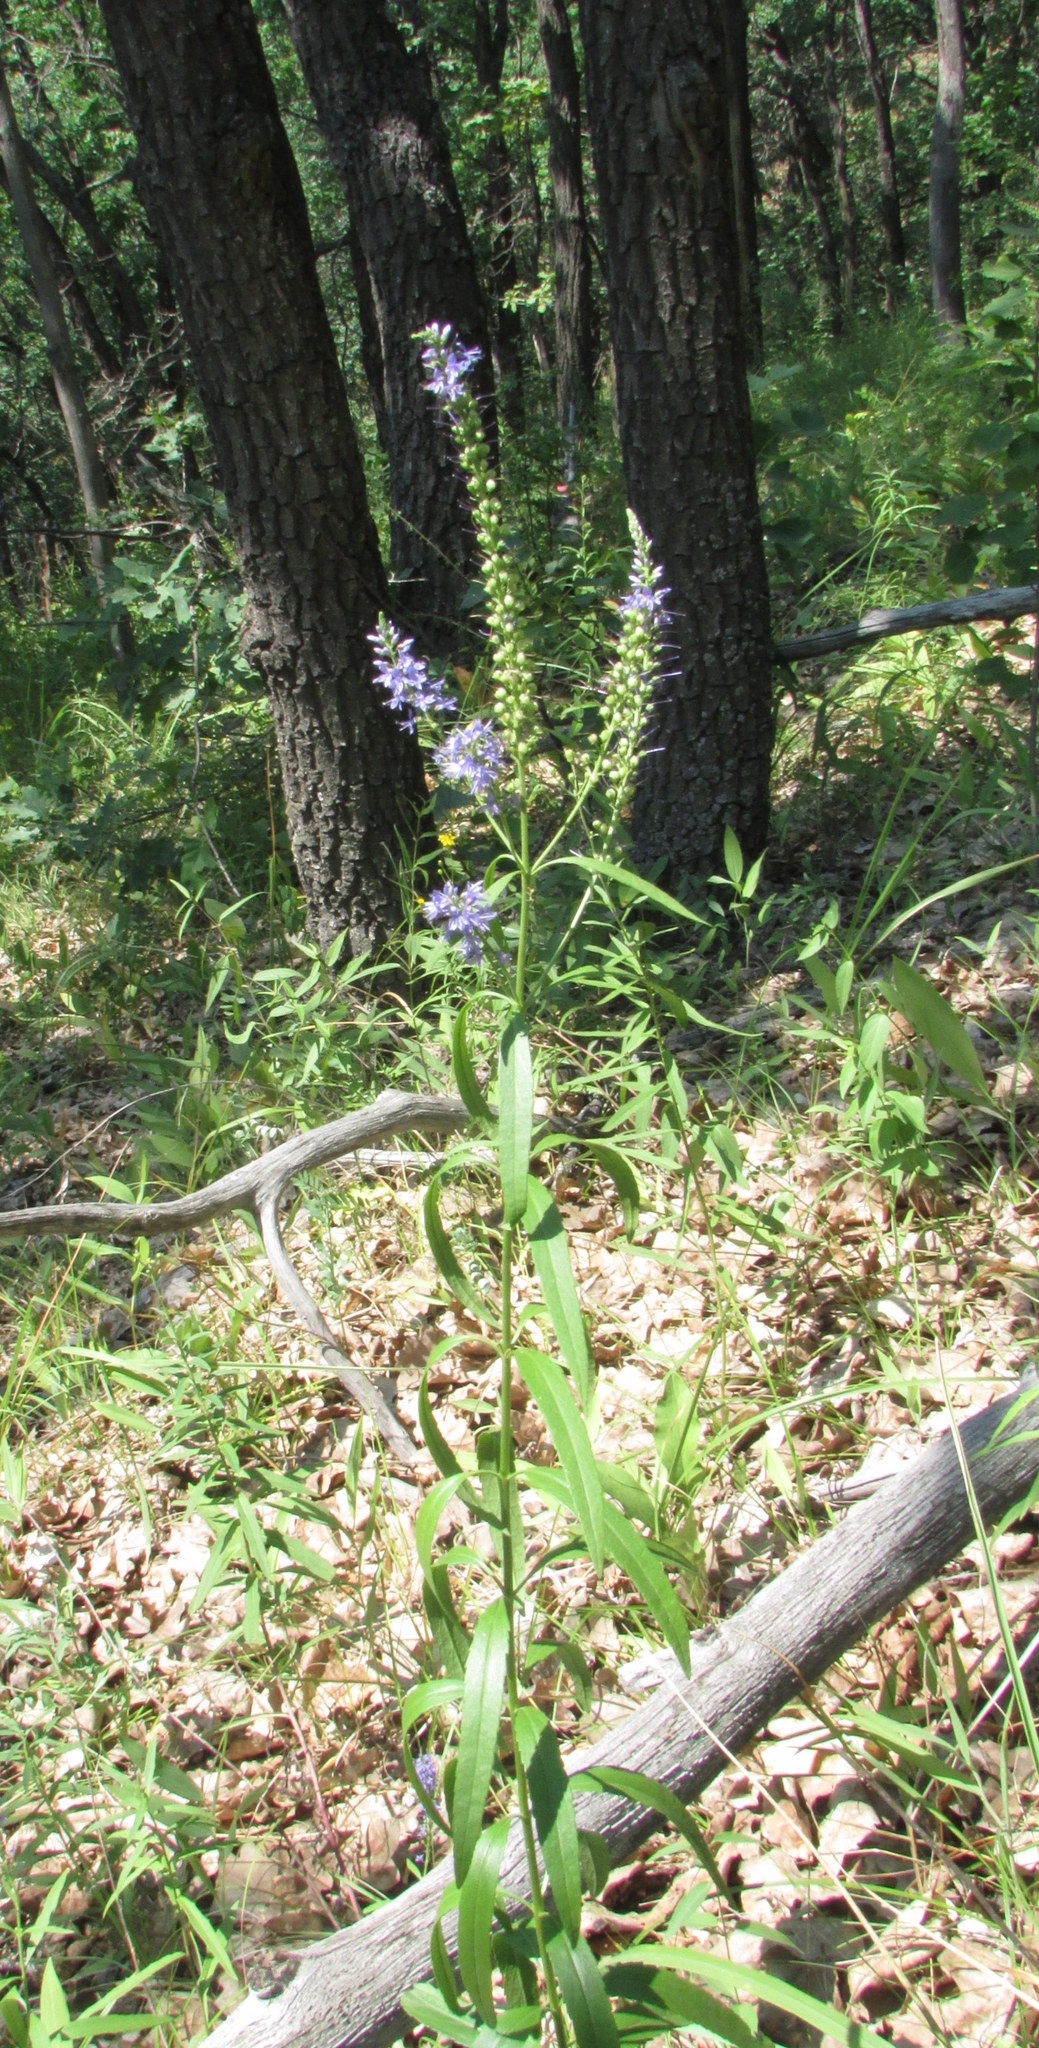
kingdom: Plantae
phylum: Tracheophyta
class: Magnoliopsida
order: Lamiales
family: Plantaginaceae
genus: Veronica
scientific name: Veronica spuria
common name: Bastard speedwell
